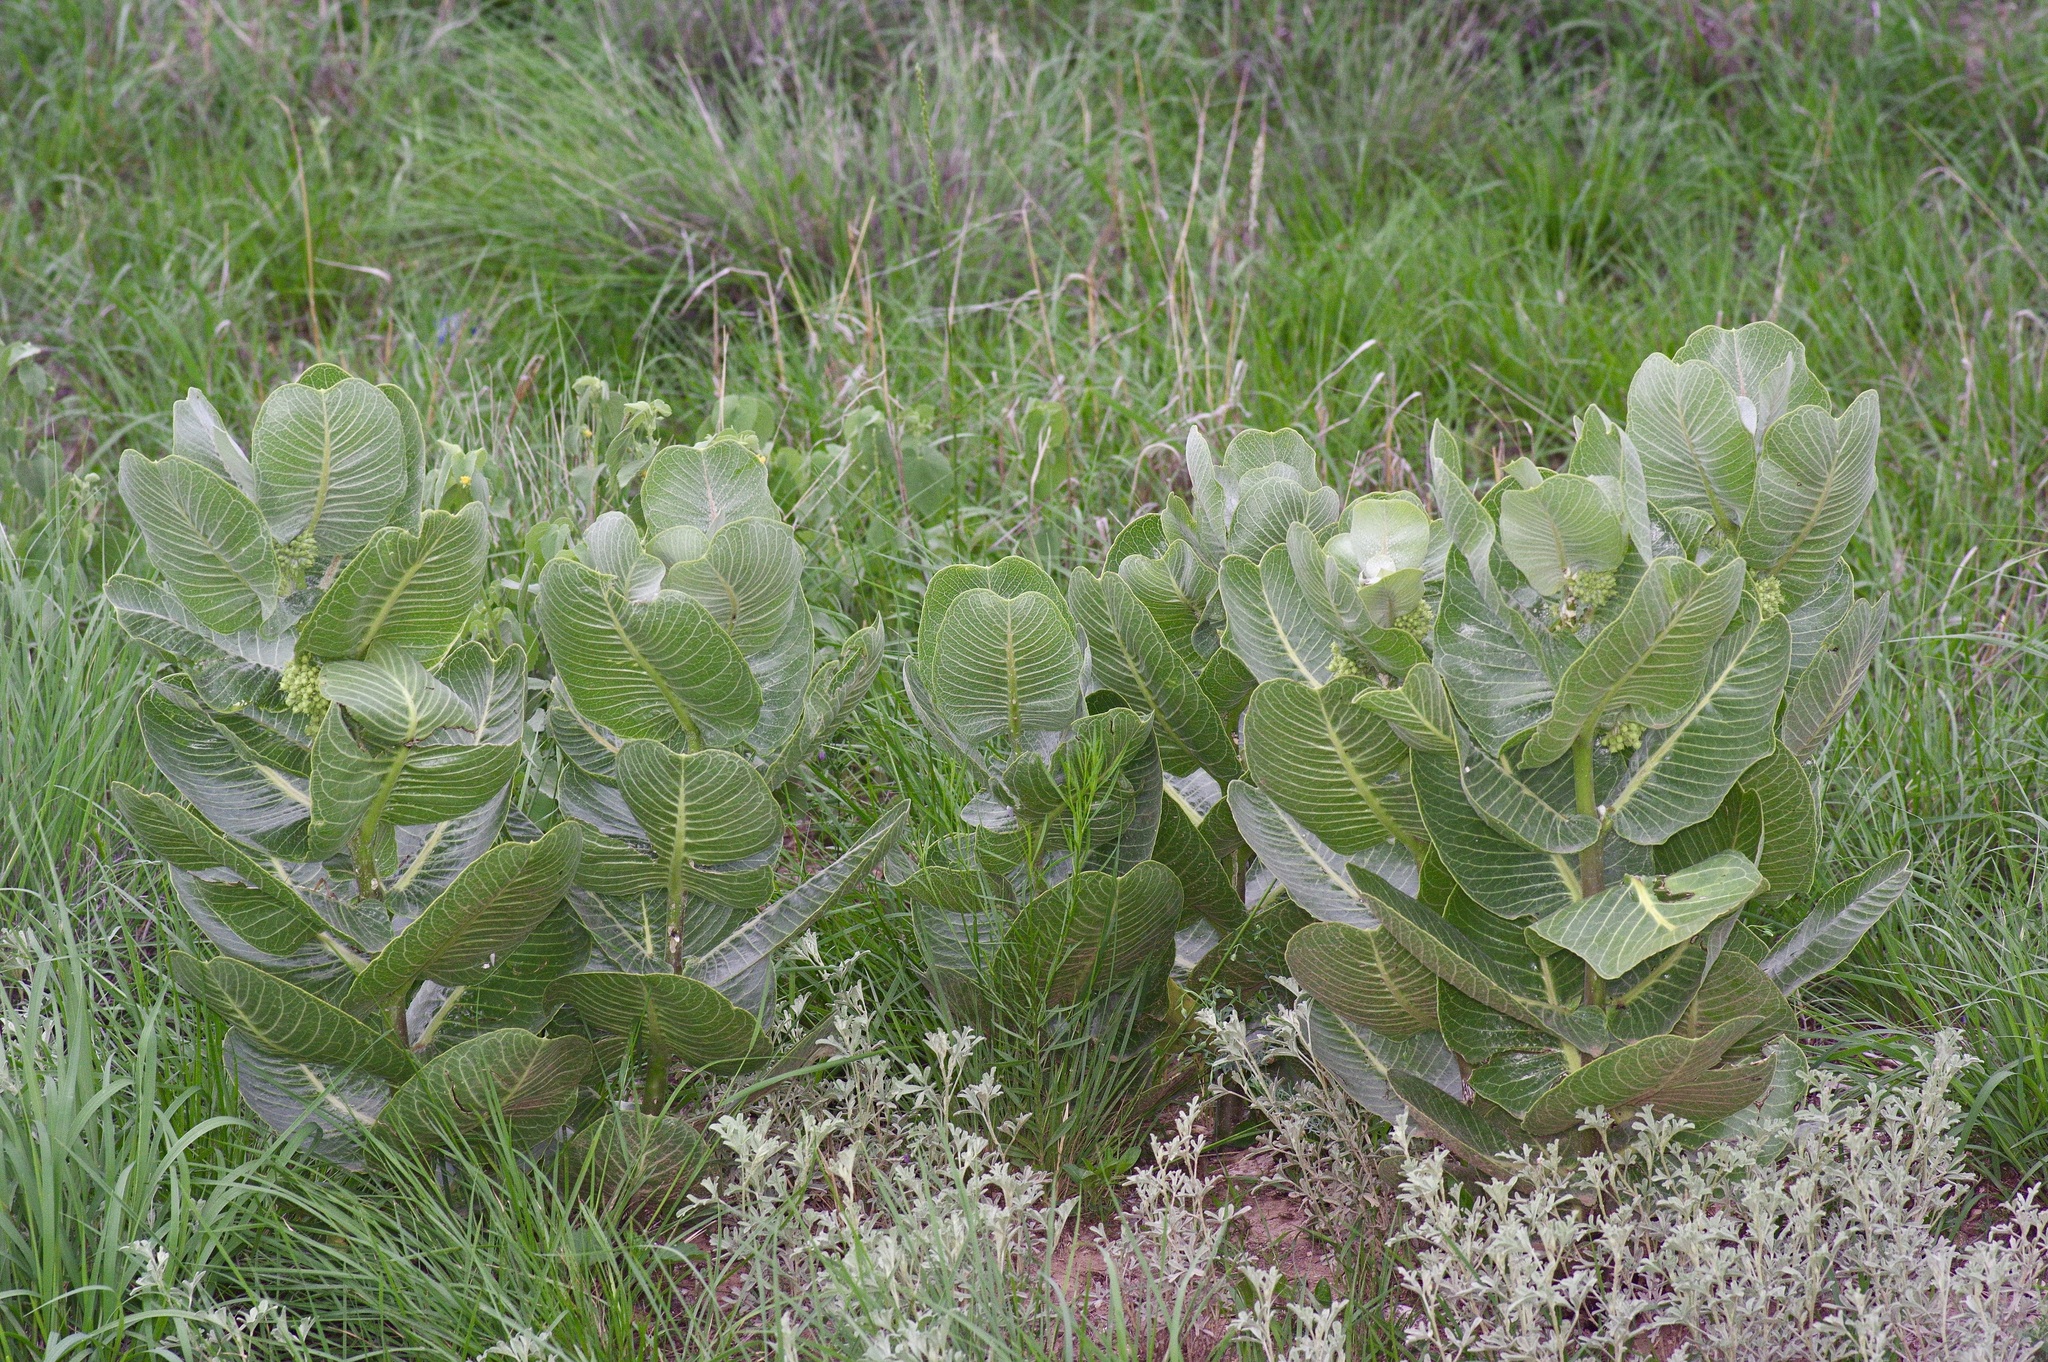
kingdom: Plantae
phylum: Tracheophyta
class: Magnoliopsida
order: Gentianales
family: Apocynaceae
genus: Asclepias
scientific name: Asclepias latifolia
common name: Broadleaf milkweed
